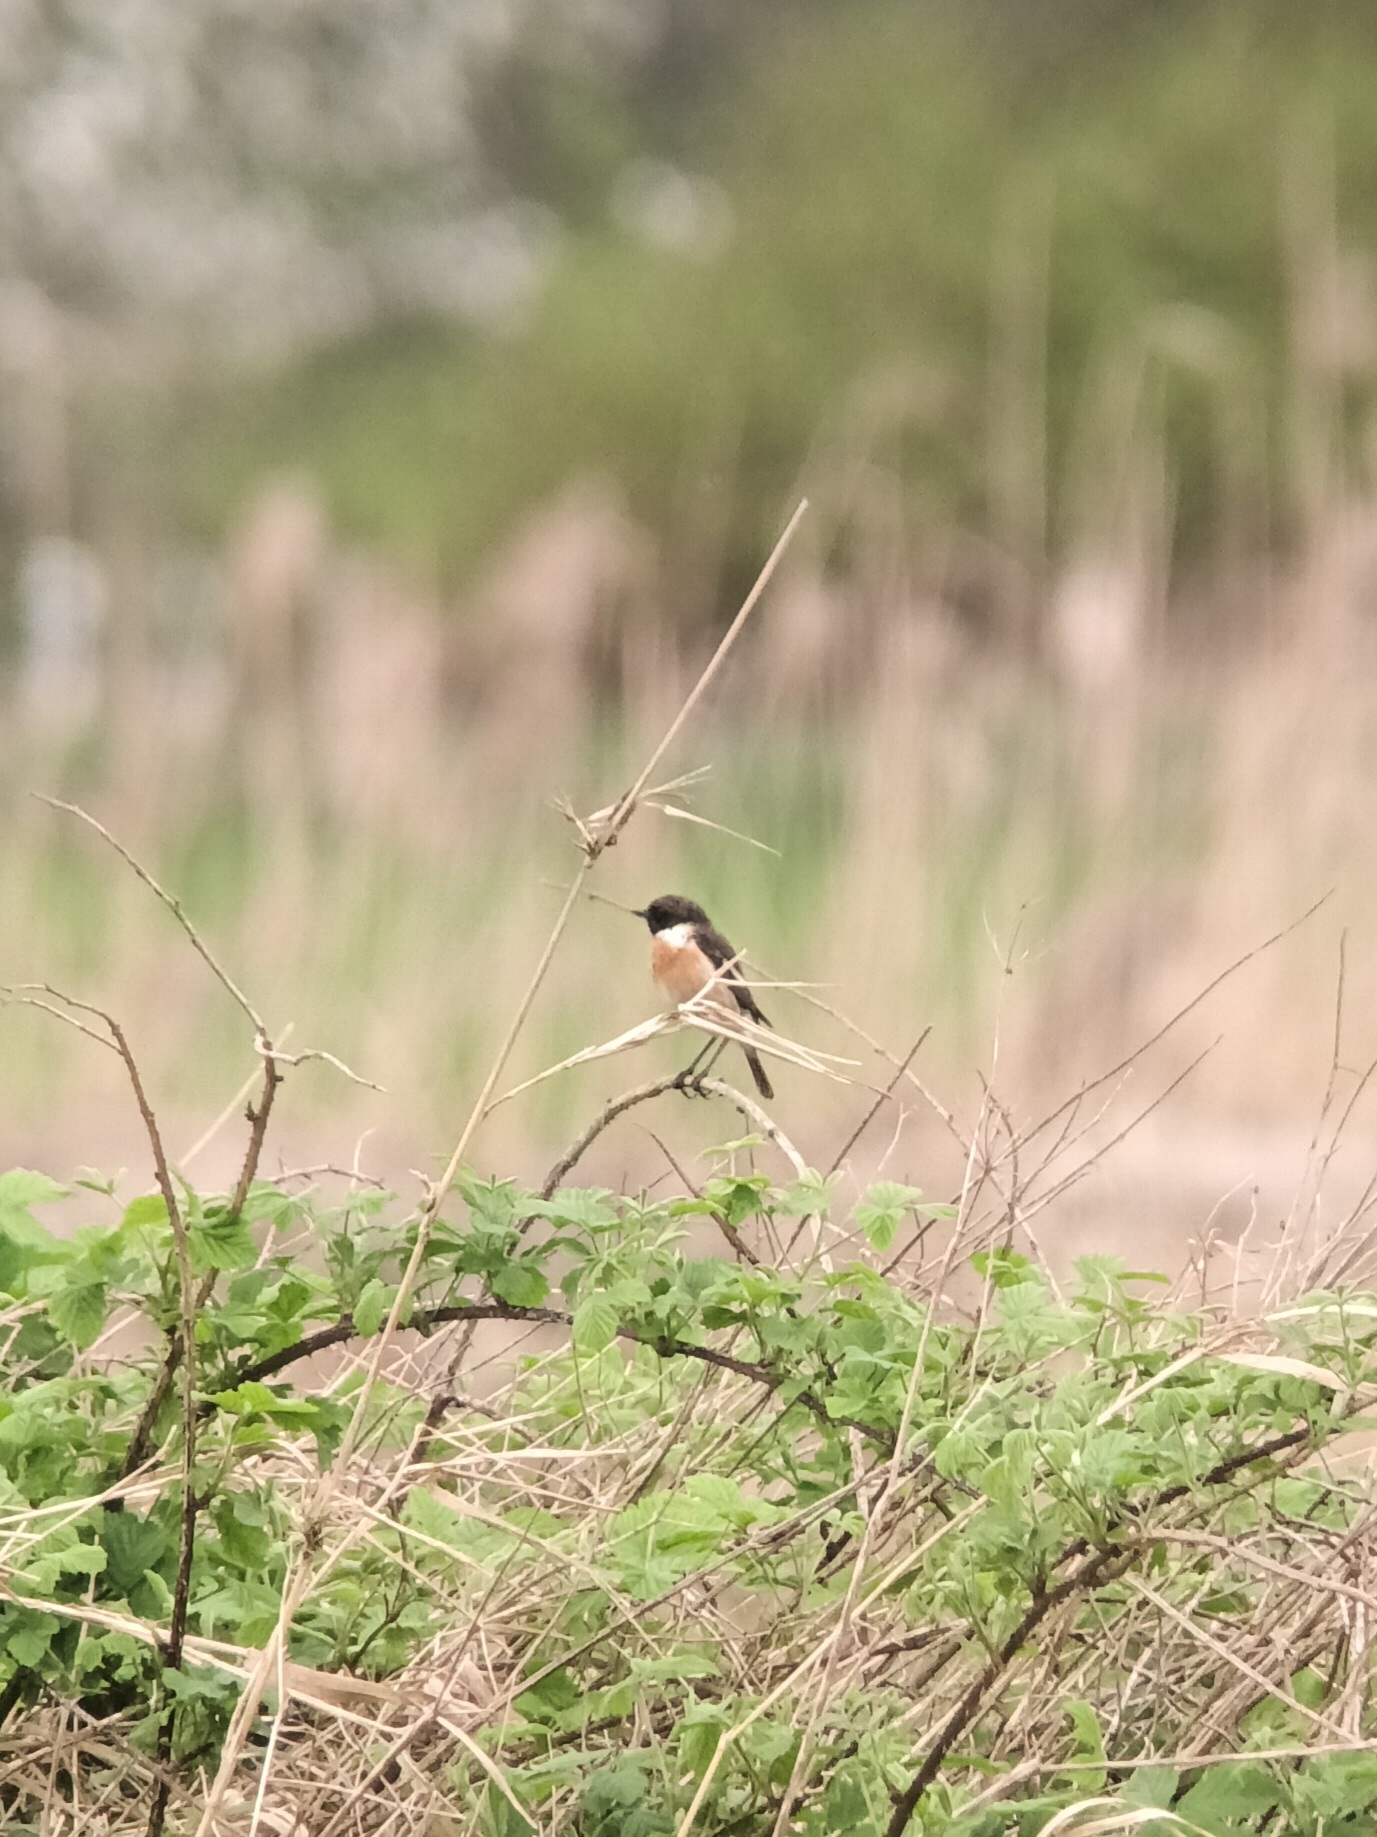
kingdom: Animalia
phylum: Chordata
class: Aves
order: Passeriformes
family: Muscicapidae
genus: Saxicola
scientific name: Saxicola rubicola
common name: European stonechat
